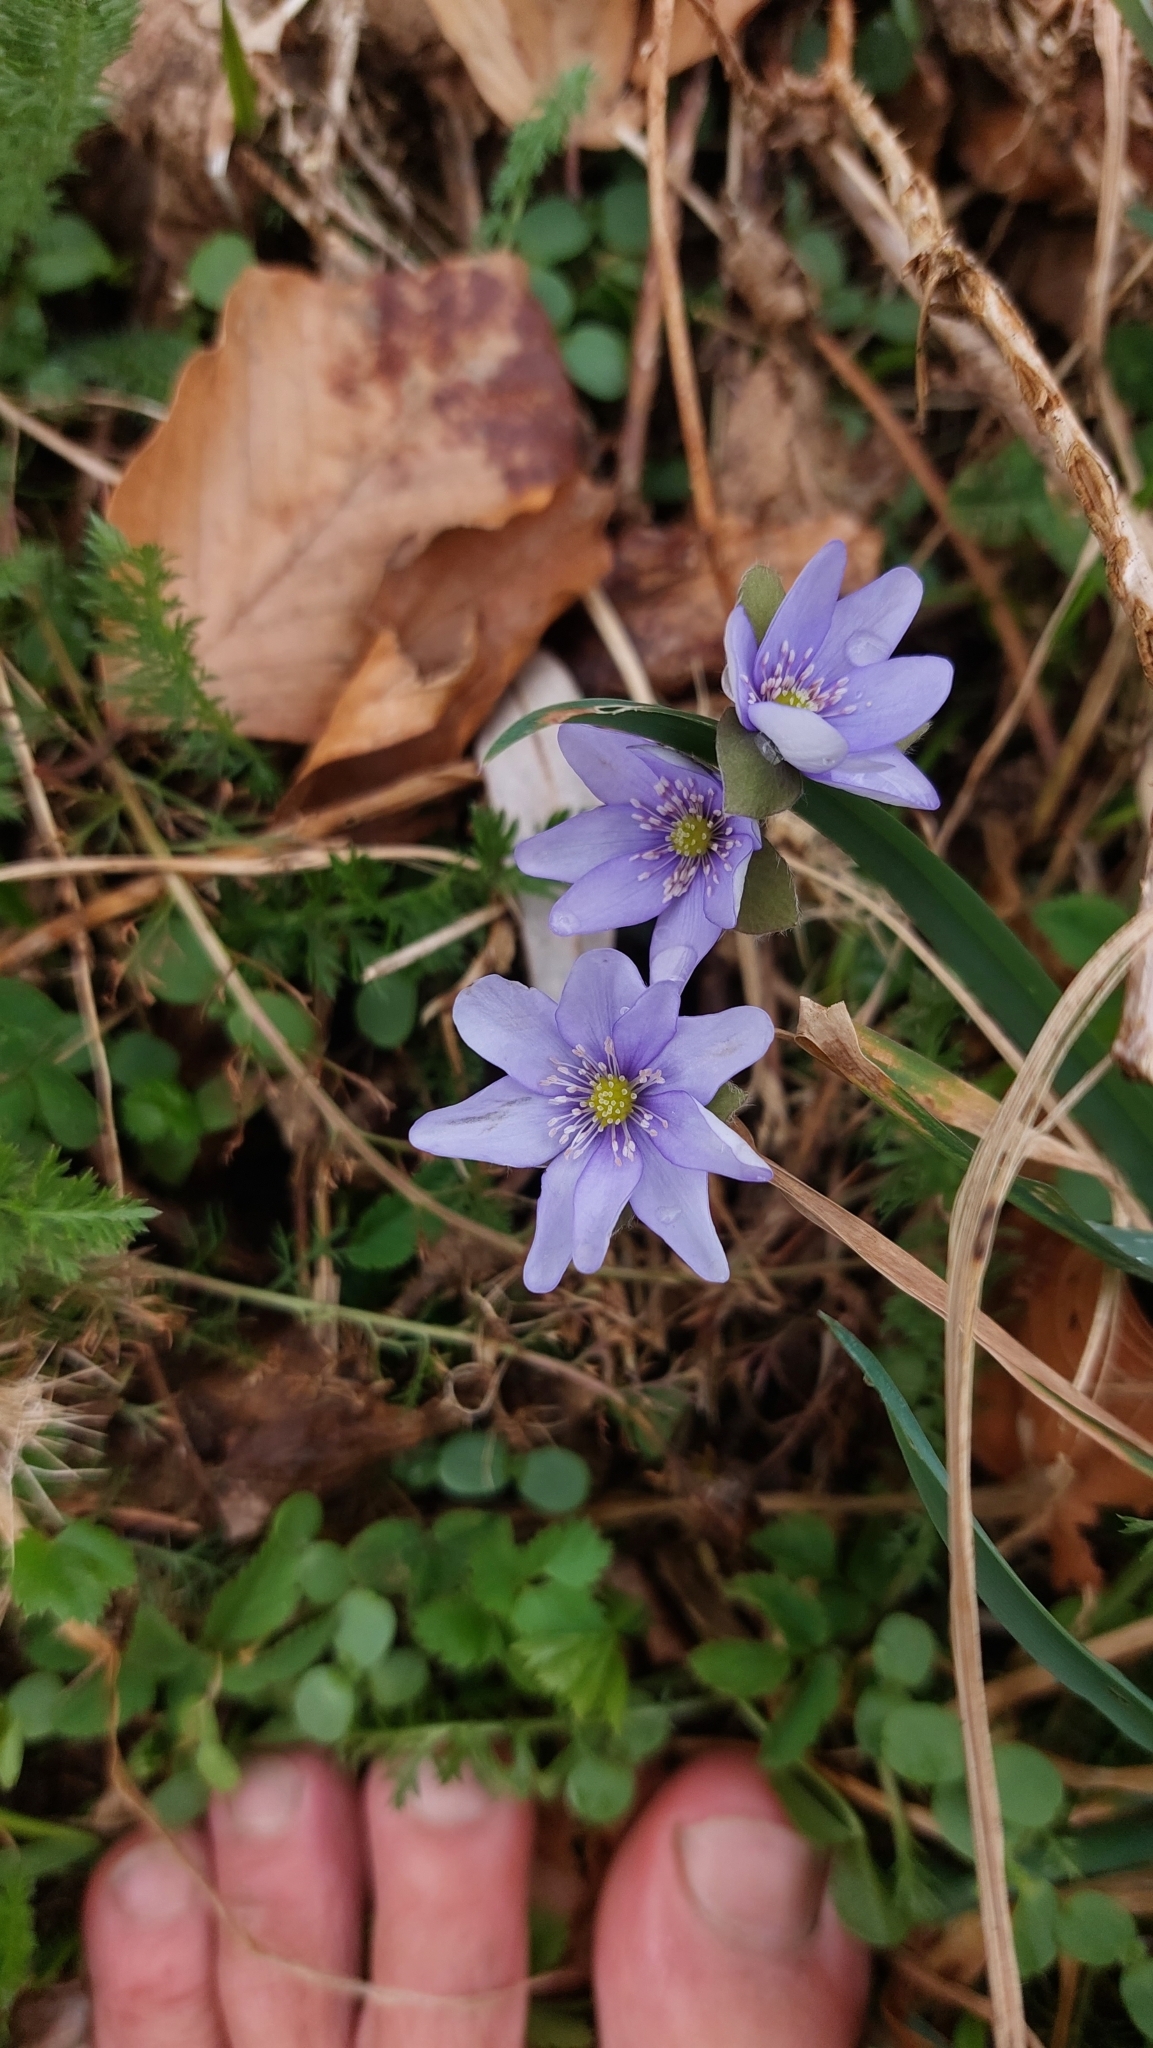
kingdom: Plantae
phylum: Tracheophyta
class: Magnoliopsida
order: Ranunculales
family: Ranunculaceae
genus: Hepatica
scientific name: Hepatica nobilis
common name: Liverleaf
